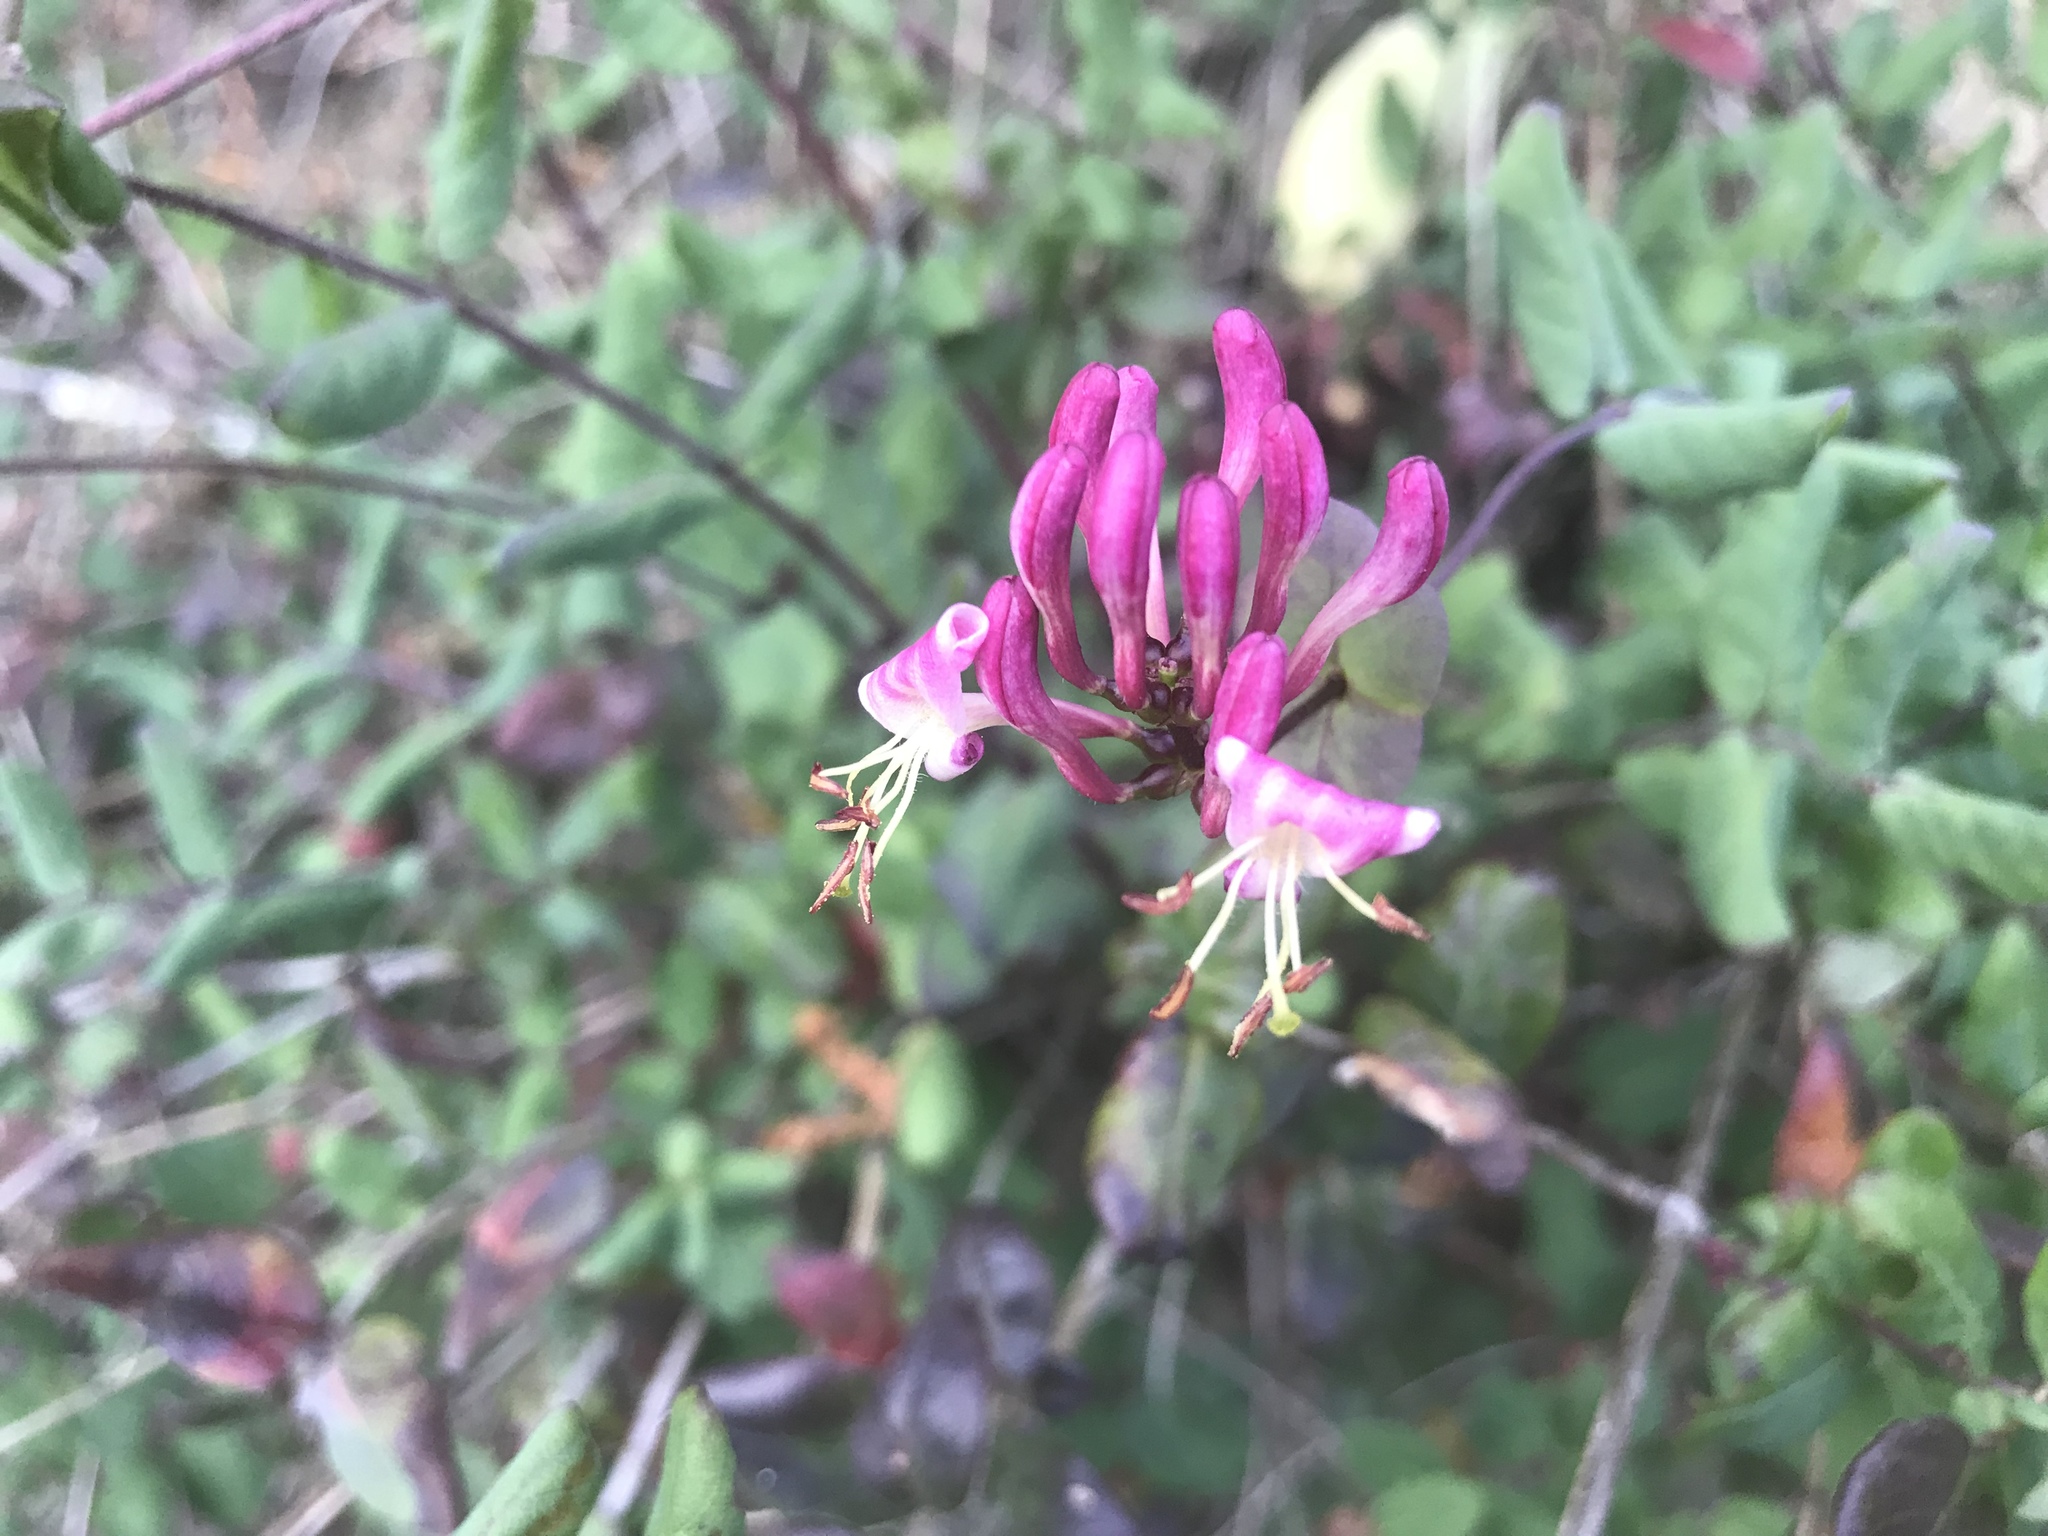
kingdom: Plantae
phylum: Tracheophyta
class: Magnoliopsida
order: Dipsacales
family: Caprifoliaceae
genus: Lonicera
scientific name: Lonicera hispidula
